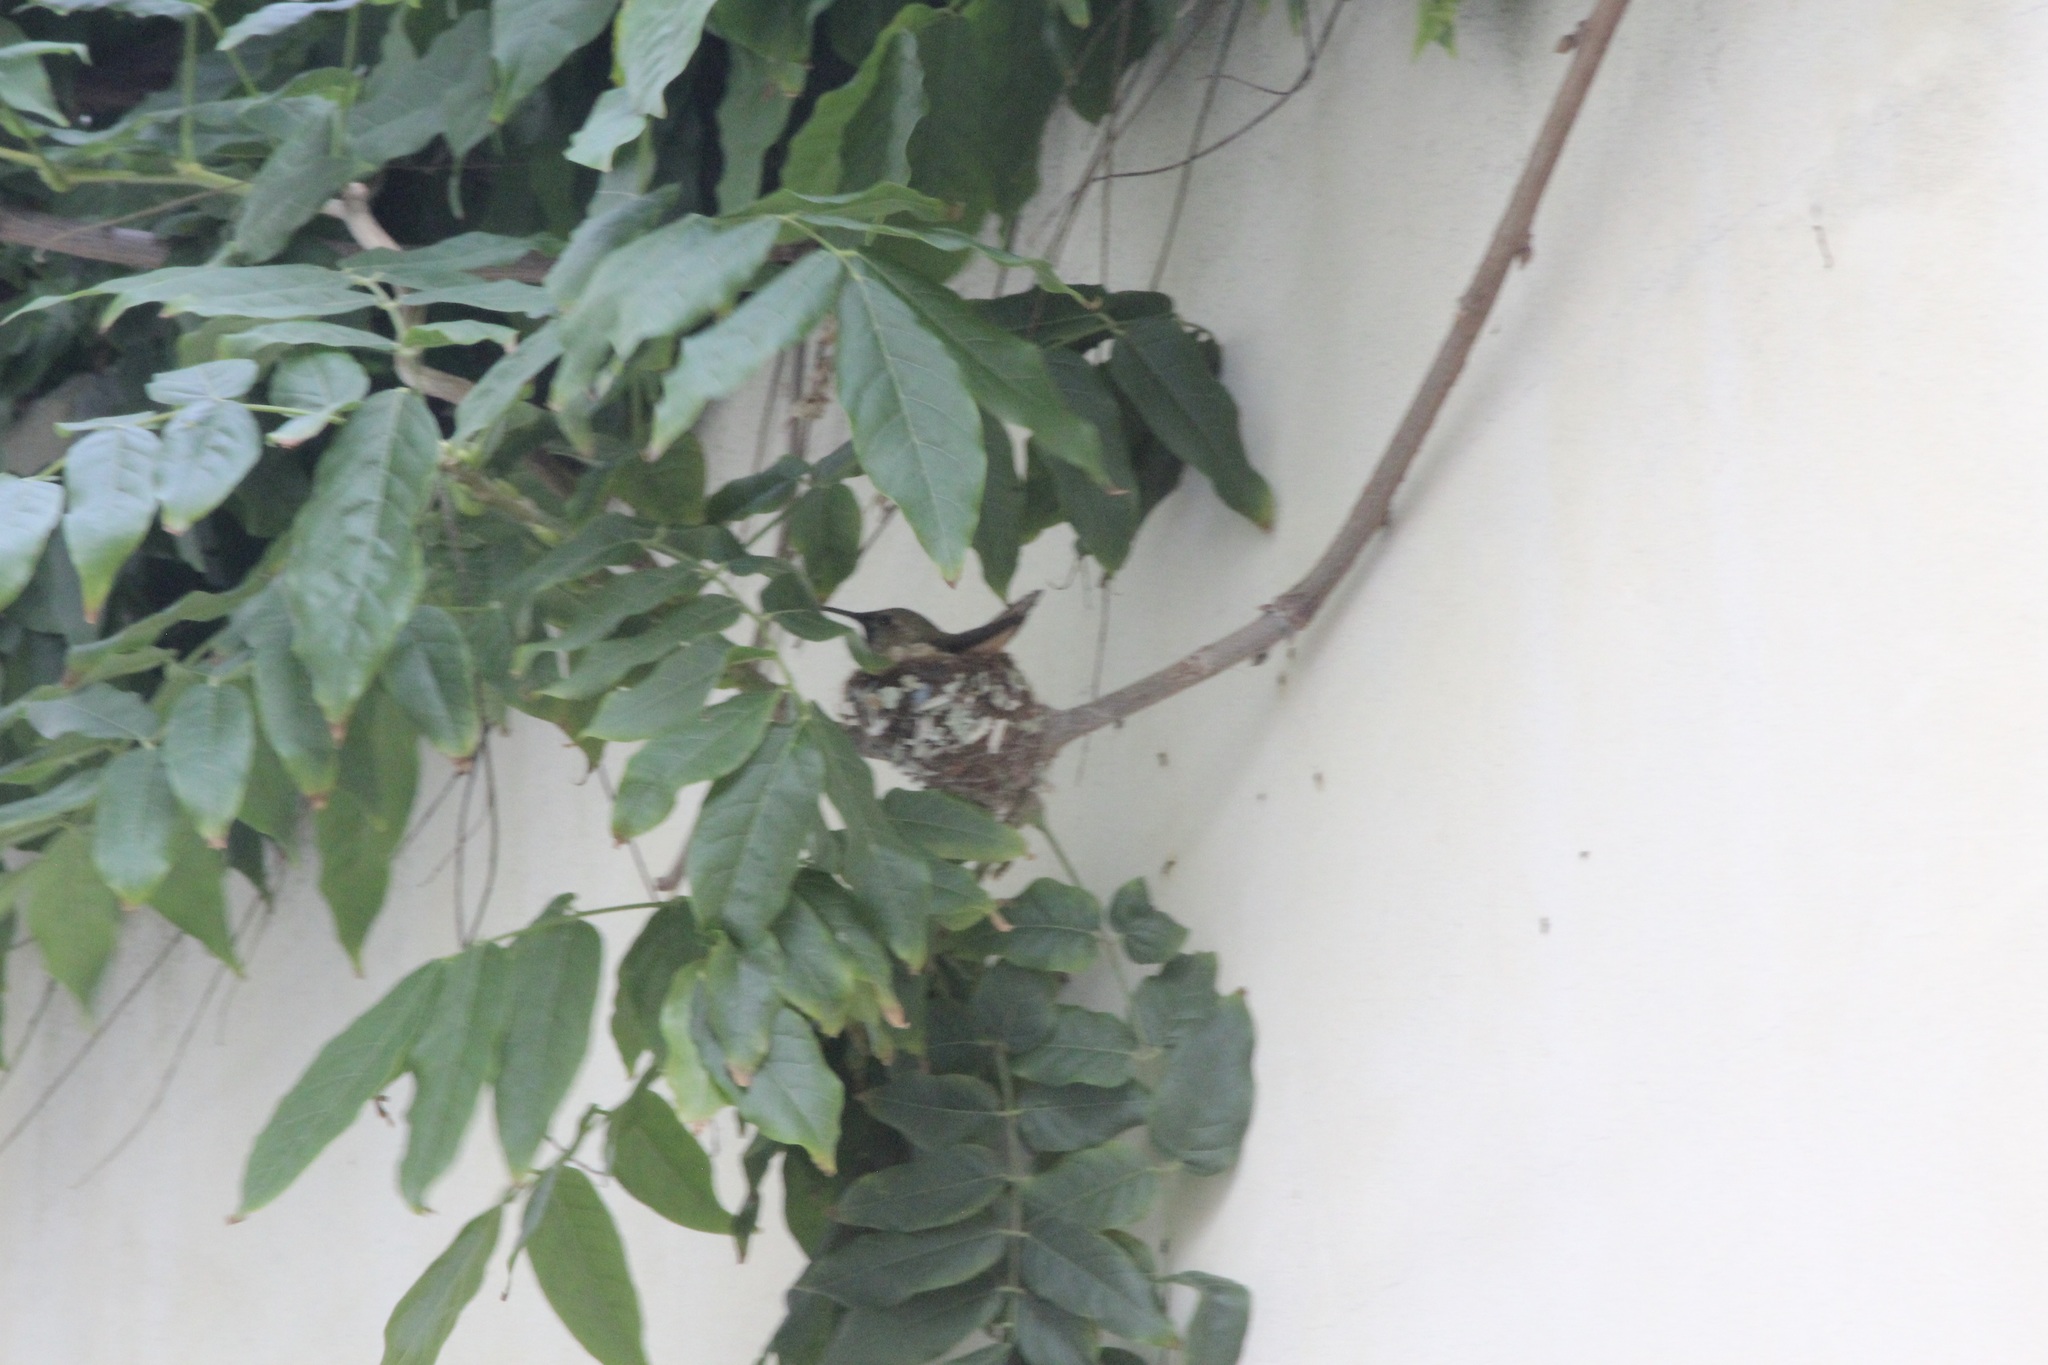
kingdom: Animalia
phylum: Chordata
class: Aves
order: Apodiformes
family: Trochilidae
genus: Selasphorus
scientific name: Selasphorus sasin
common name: Allen's hummingbird
